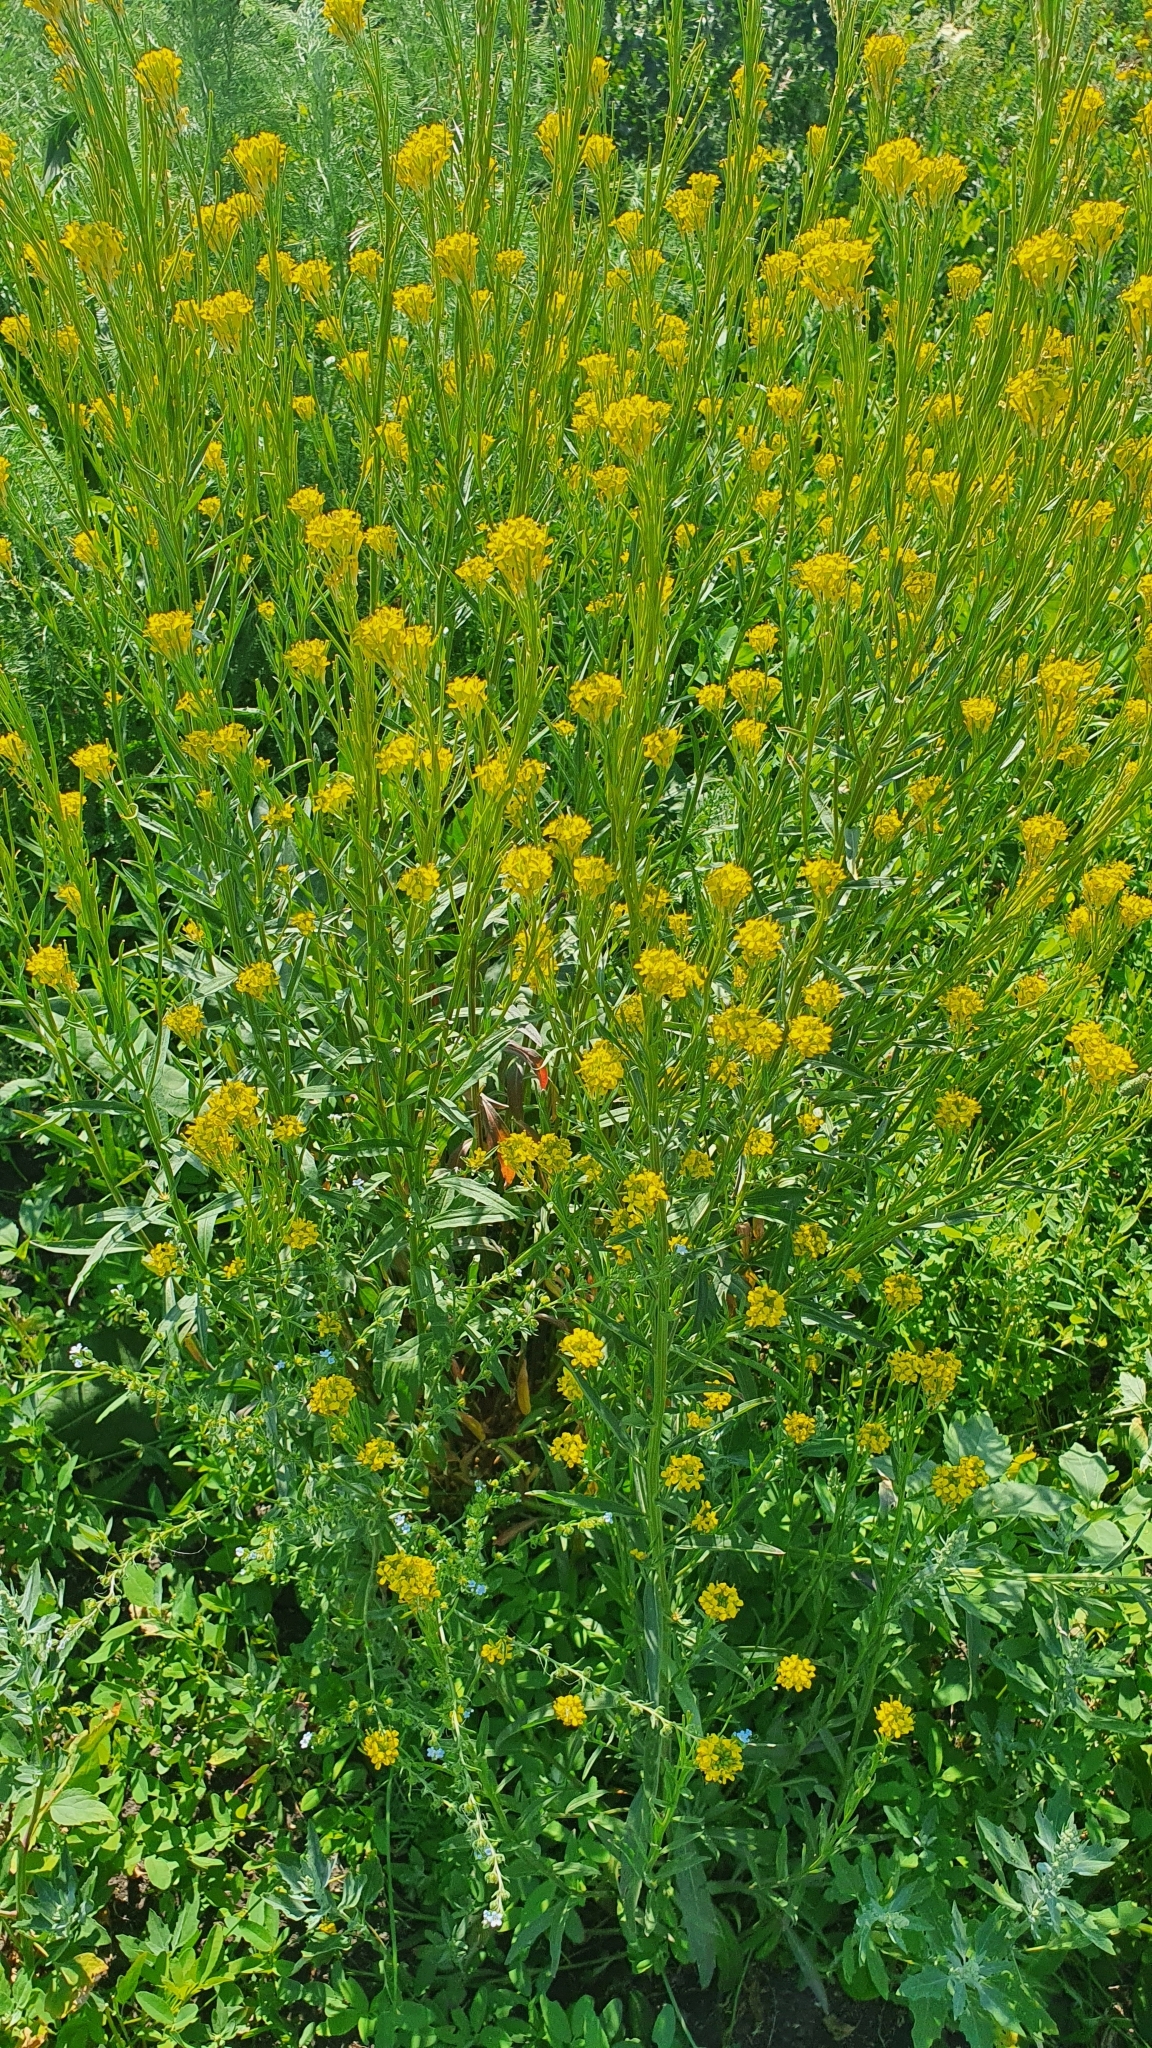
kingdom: Plantae
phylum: Tracheophyta
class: Magnoliopsida
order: Brassicales
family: Brassicaceae
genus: Erysimum
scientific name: Erysimum hieraciifolium
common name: European wallflower
